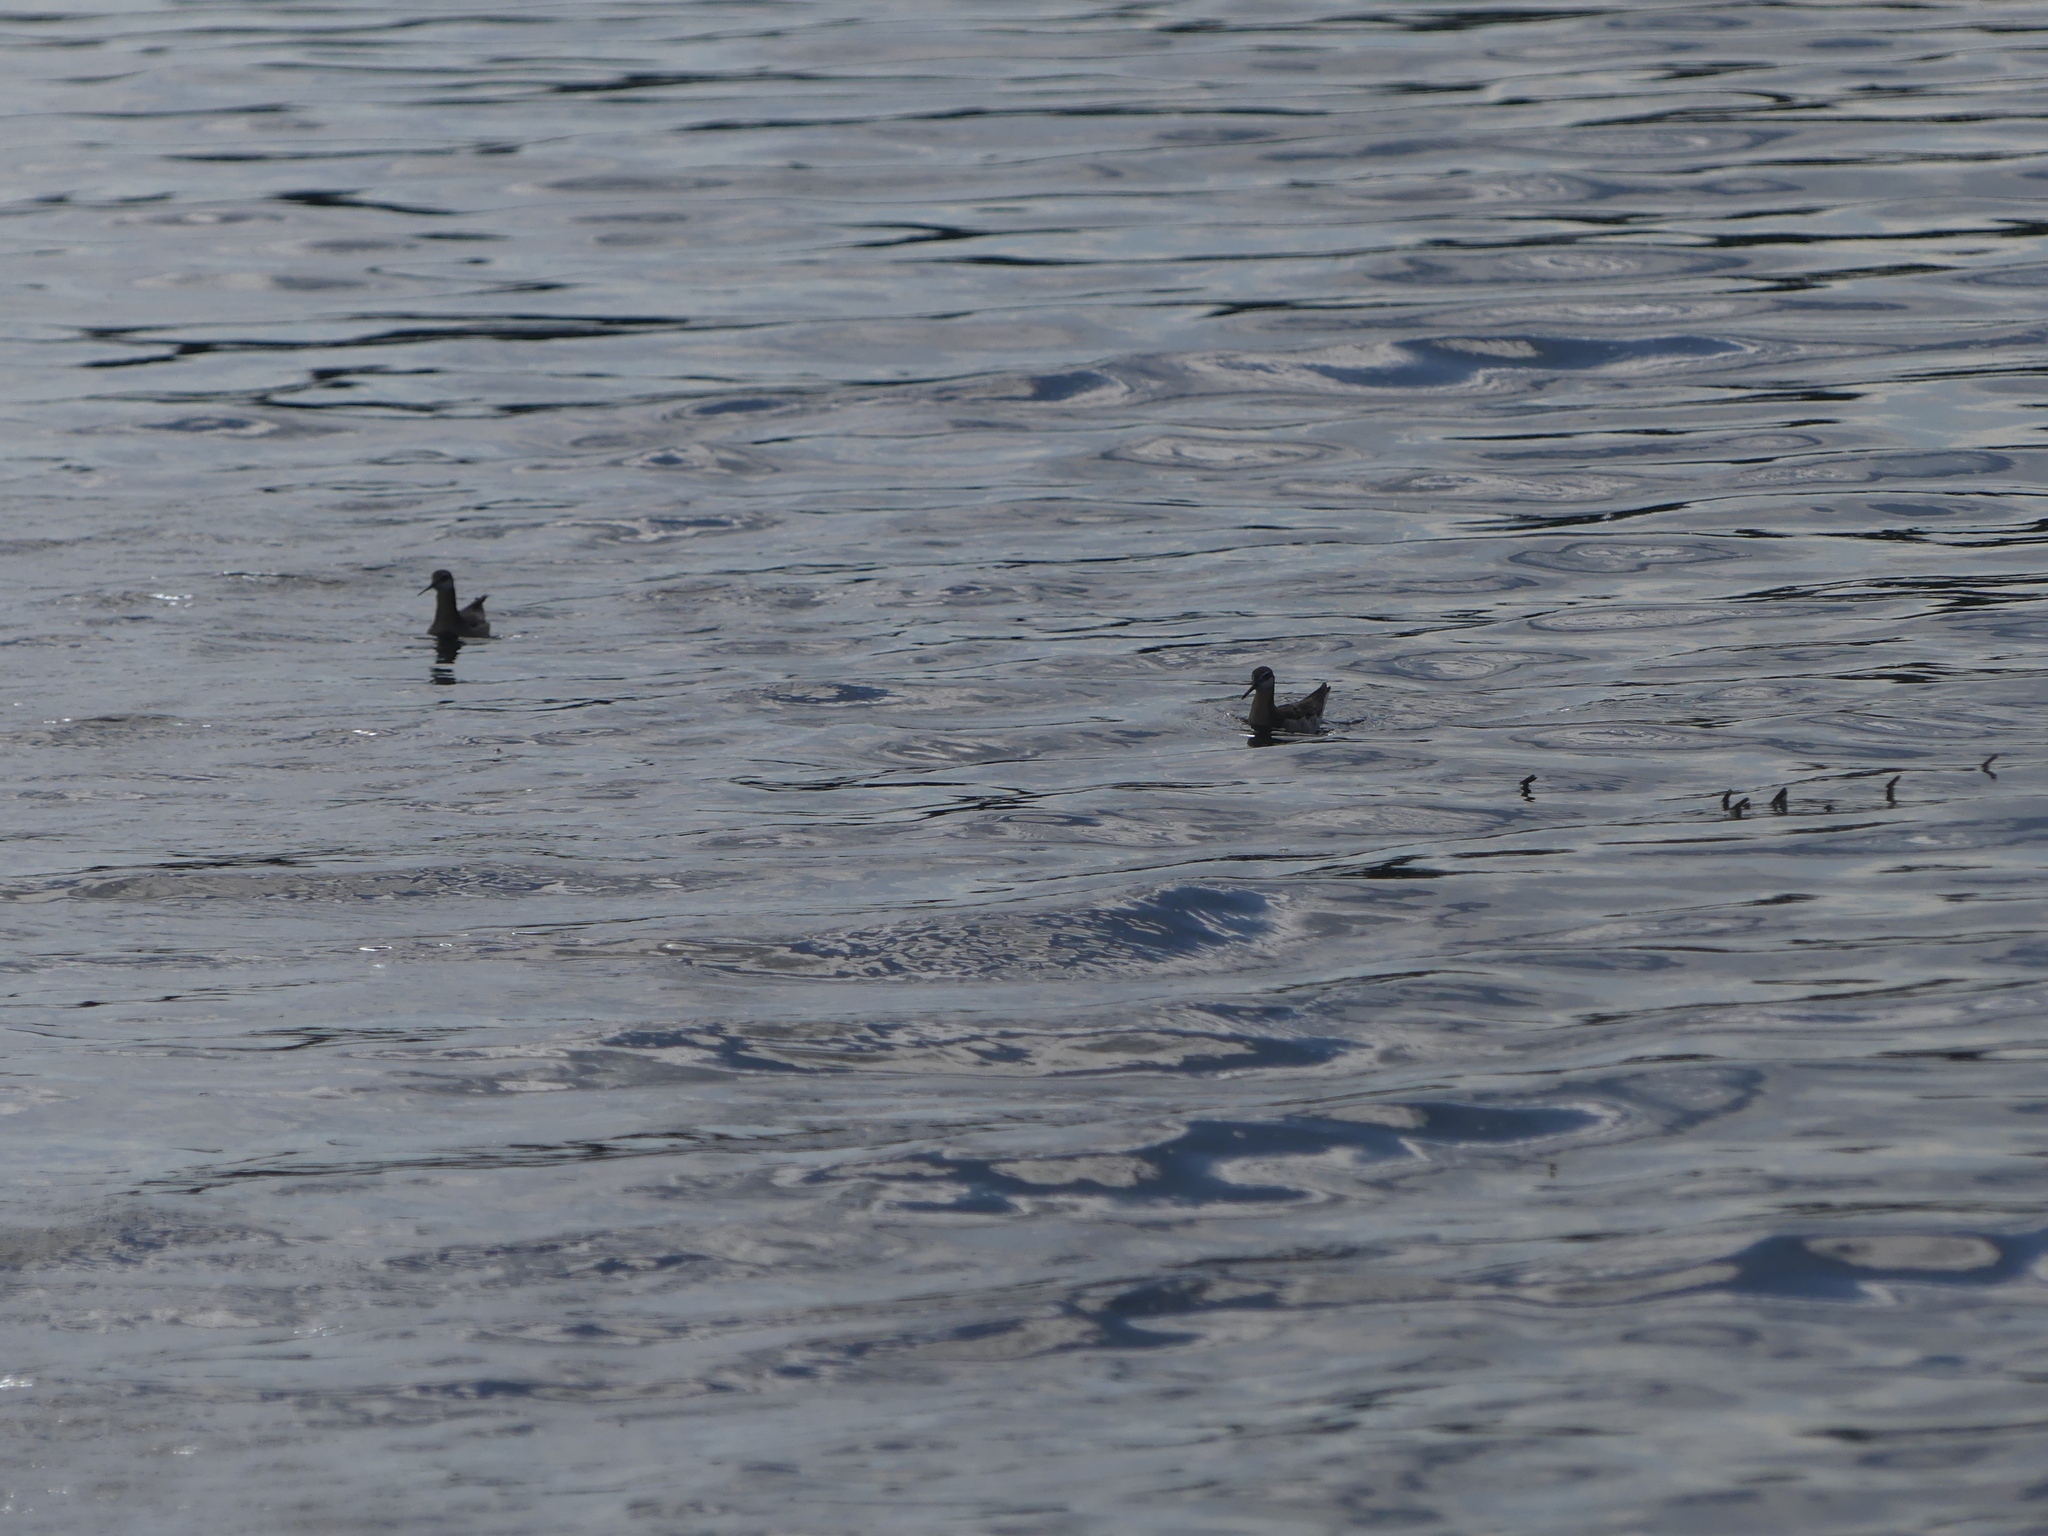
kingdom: Animalia
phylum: Chordata
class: Aves
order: Charadriiformes
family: Scolopacidae
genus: Phalaropus
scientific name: Phalaropus tricolor
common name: Wilson's phalarope
